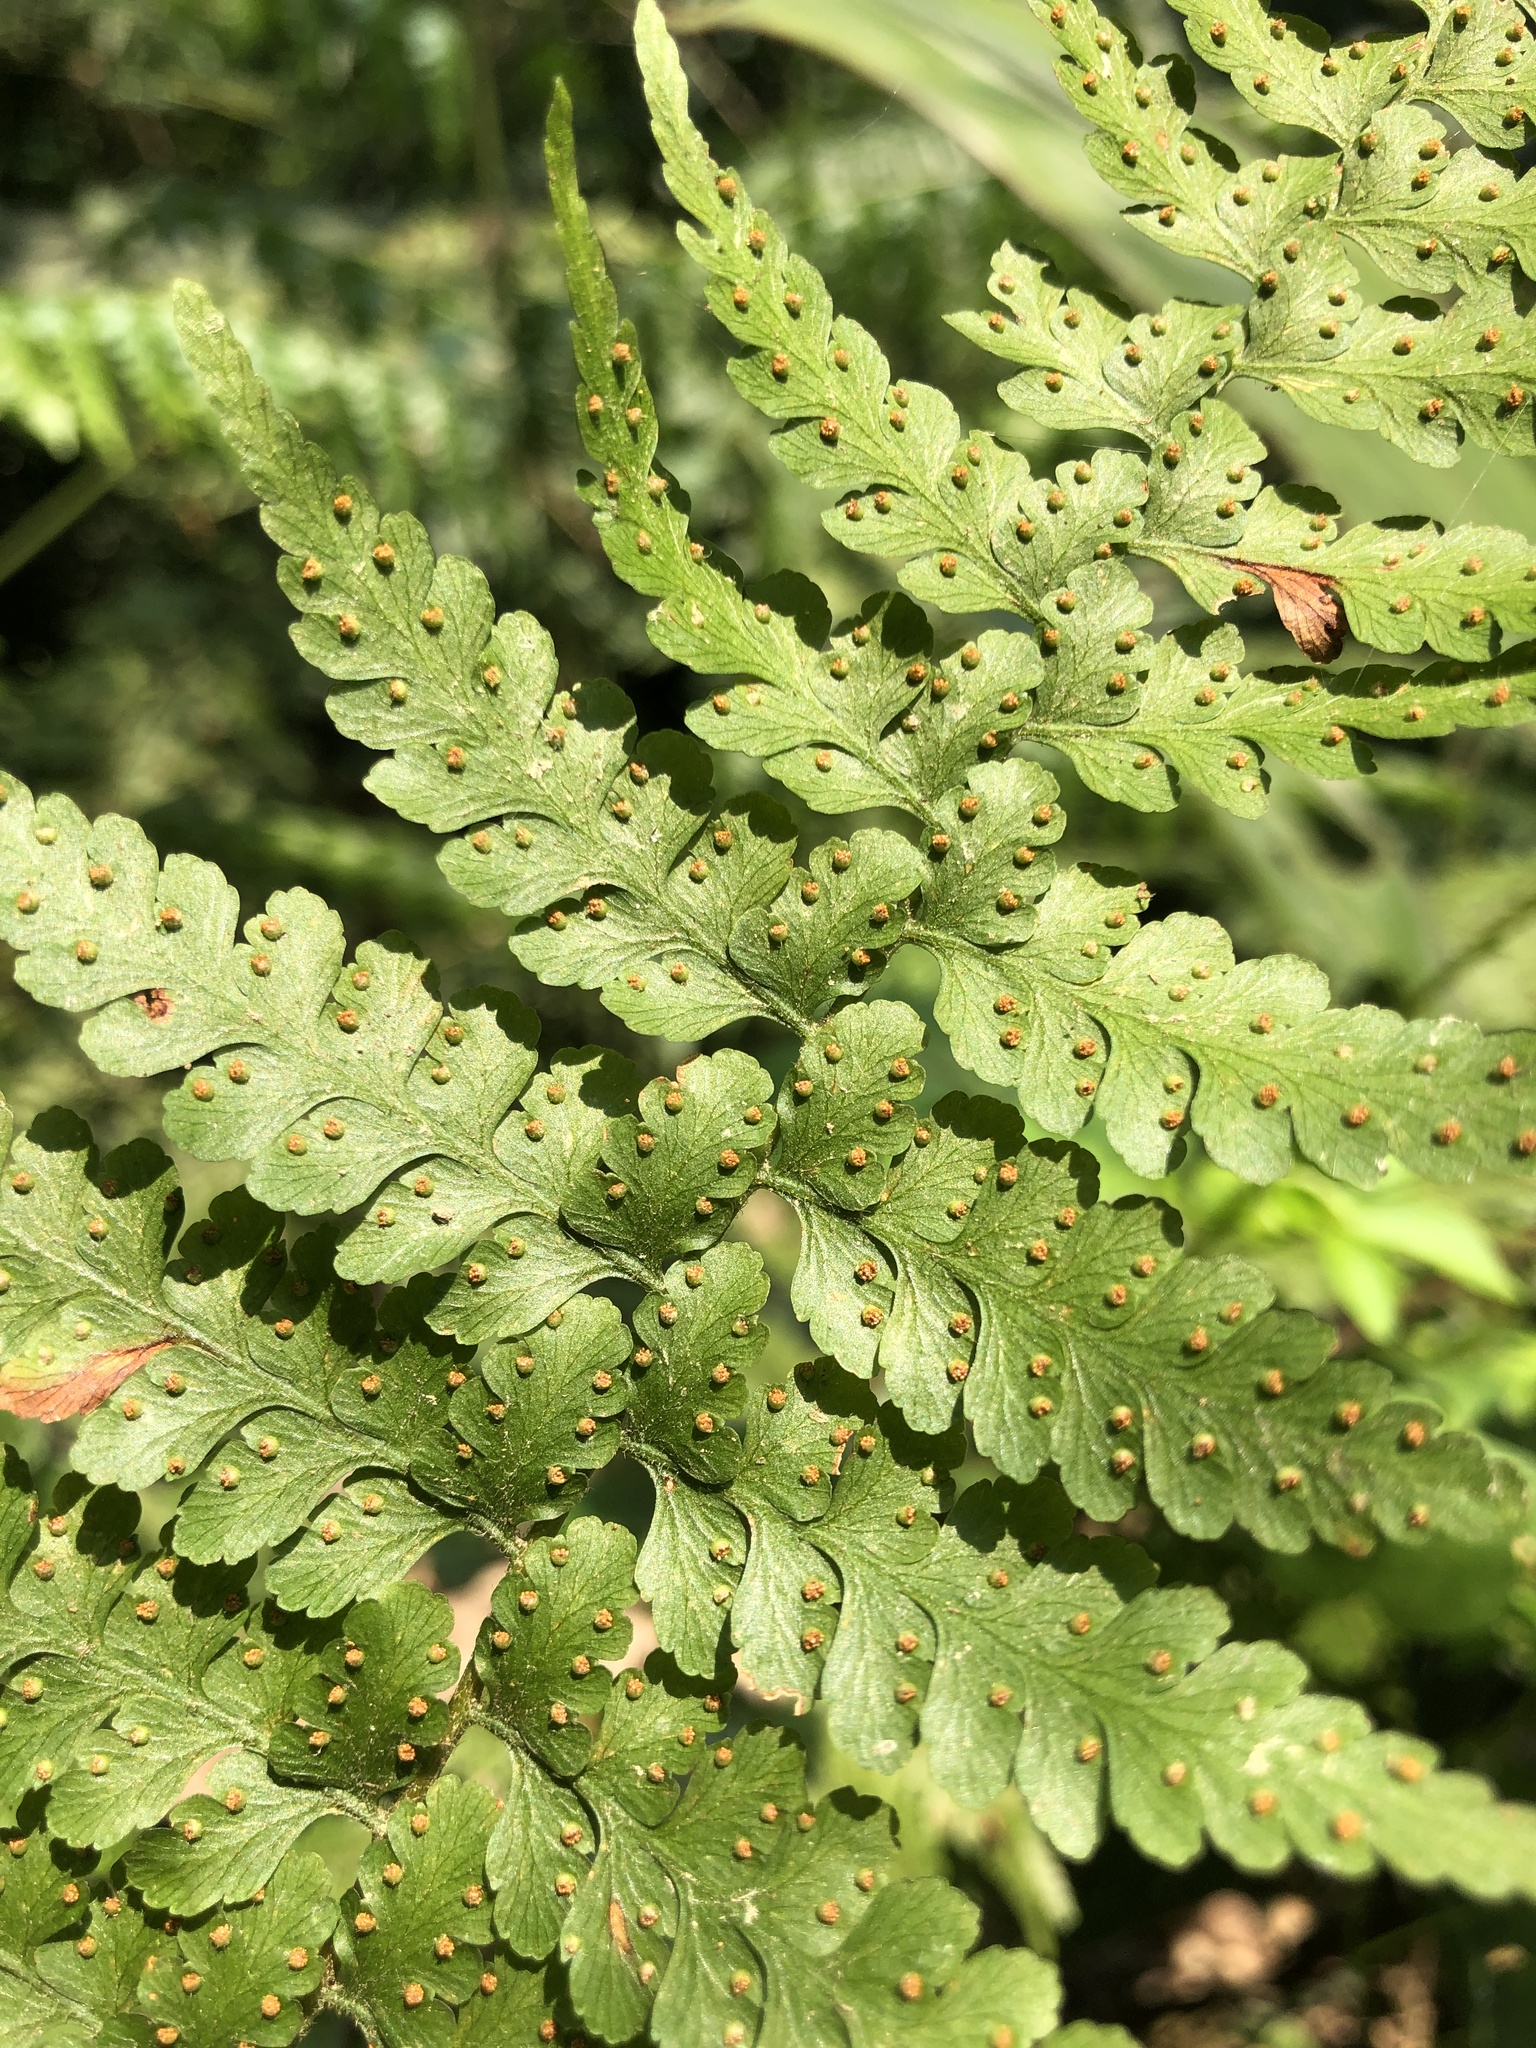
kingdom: Plantae
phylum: Tracheophyta
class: Polypodiopsida
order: Polypodiales
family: Dennstaedtiaceae
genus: Microlepia
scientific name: Microlepia nepalensis
